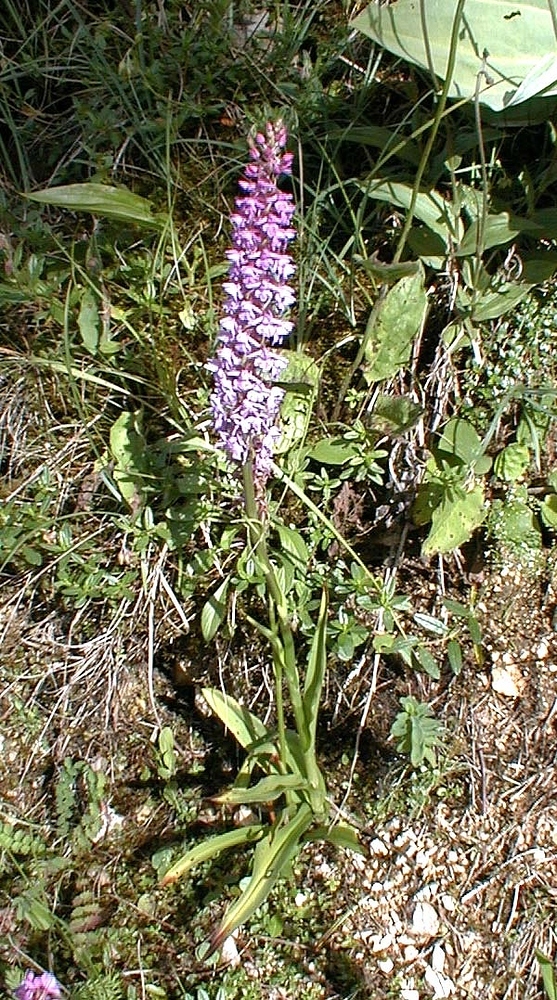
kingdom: Plantae
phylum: Tracheophyta
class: Liliopsida
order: Asparagales
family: Orchidaceae
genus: Gymnadenia
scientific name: Gymnadenia conopsea
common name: Fragrant orchid
